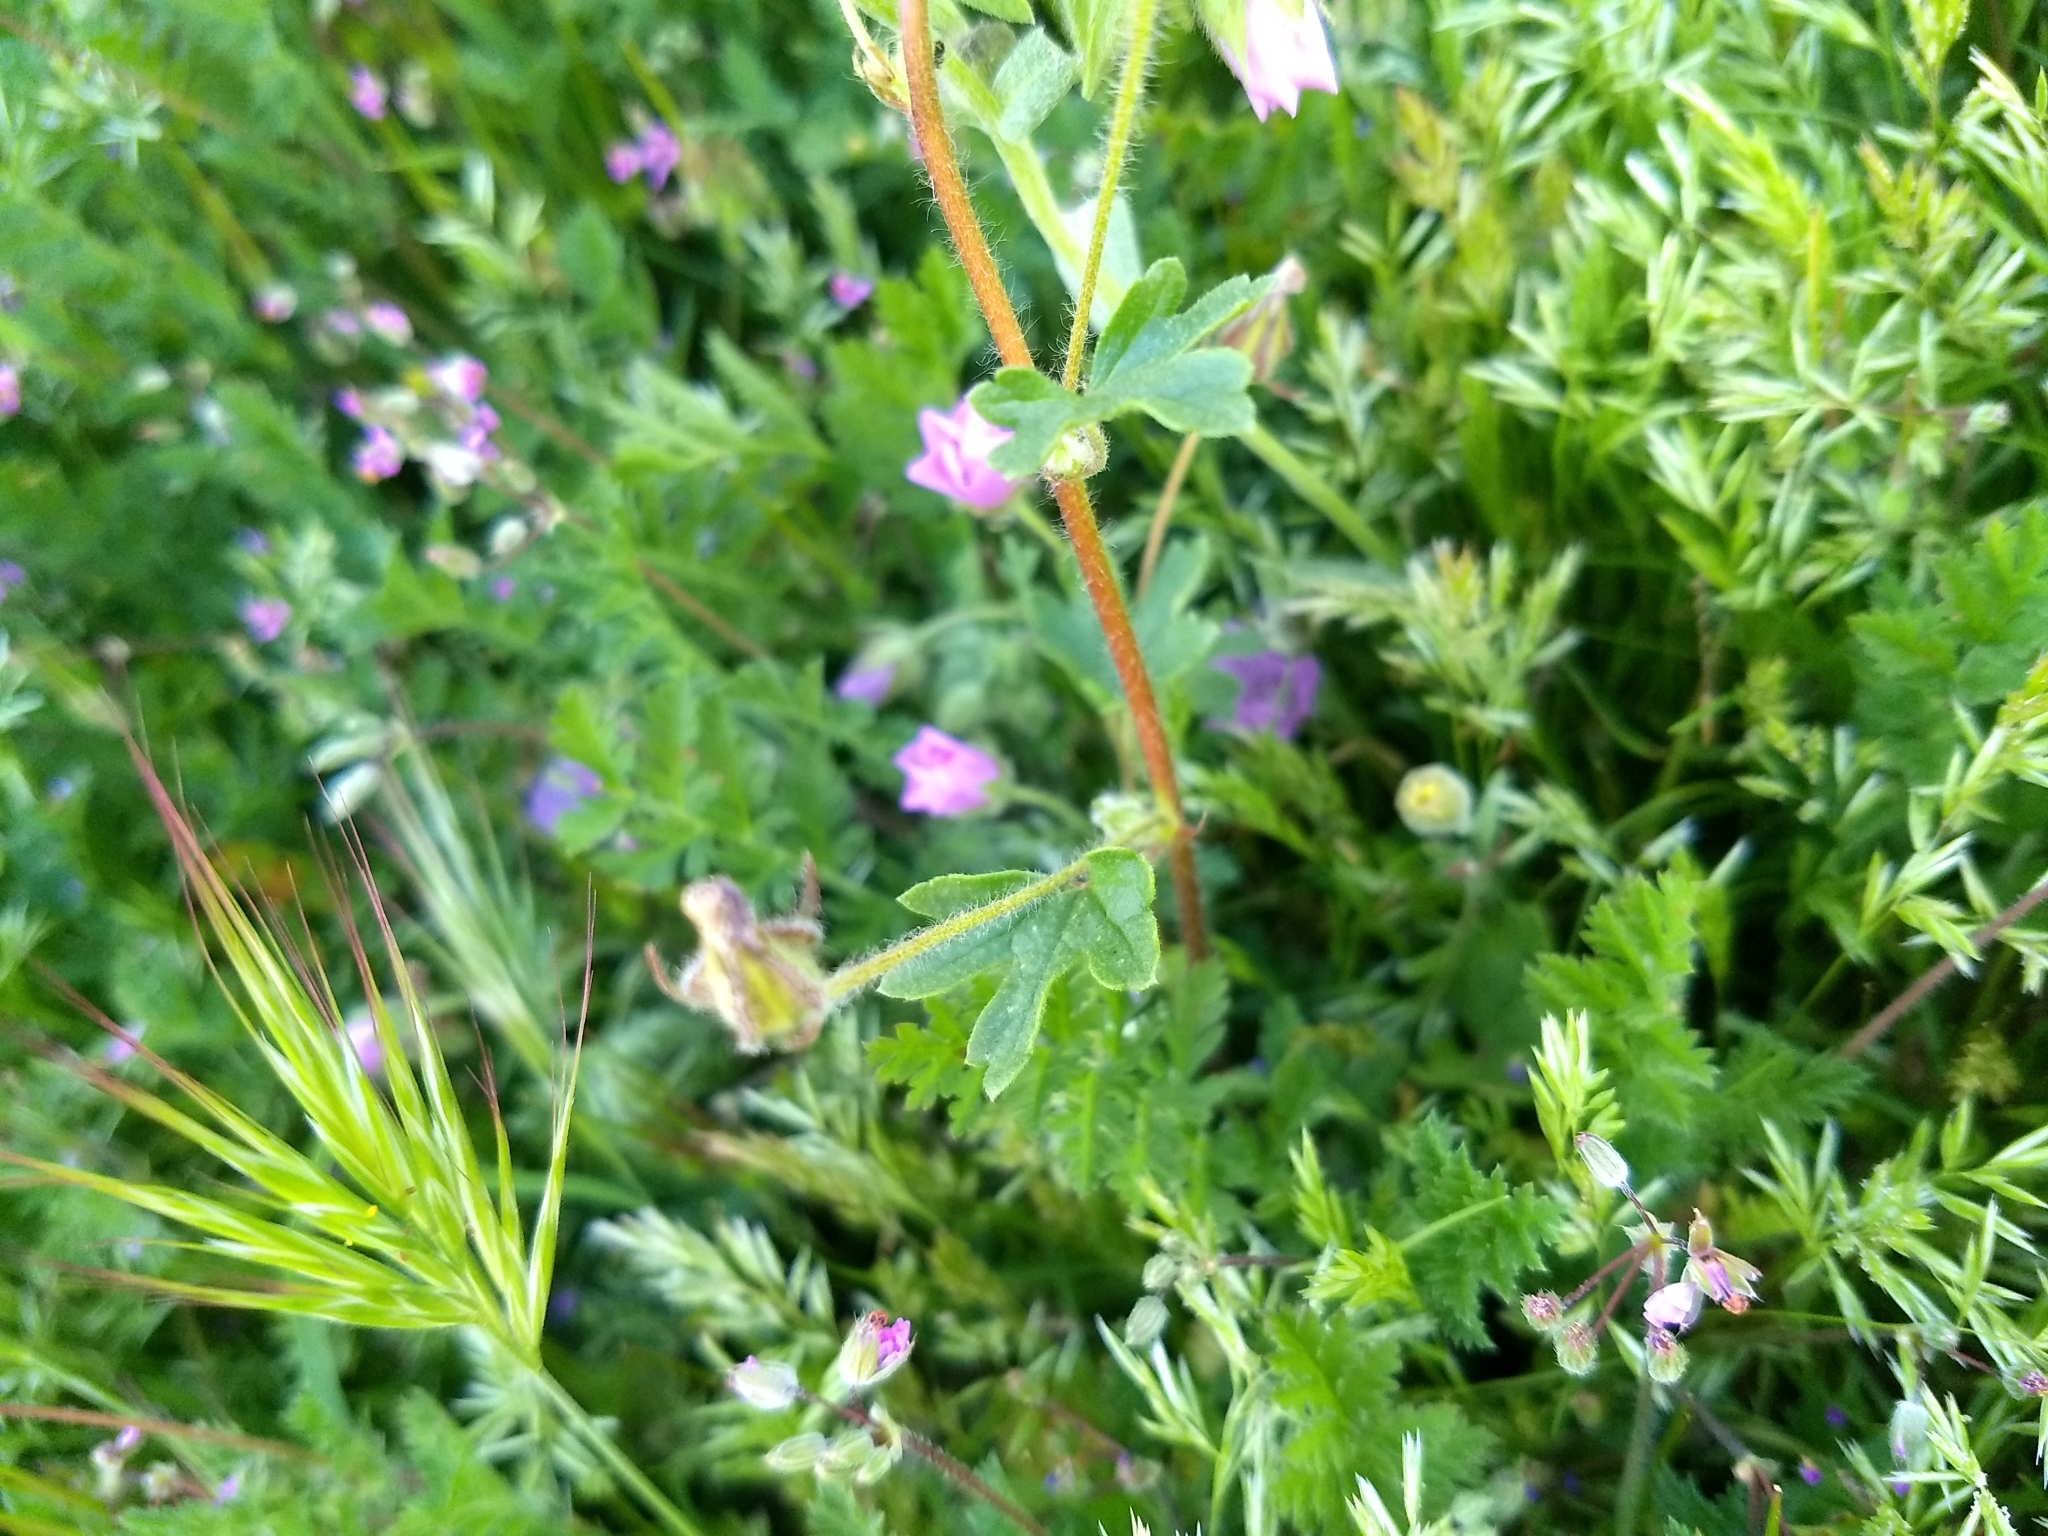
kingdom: Plantae
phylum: Tracheophyta
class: Magnoliopsida
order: Malvales
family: Malvaceae
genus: Eremalche
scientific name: Eremalche parryi
